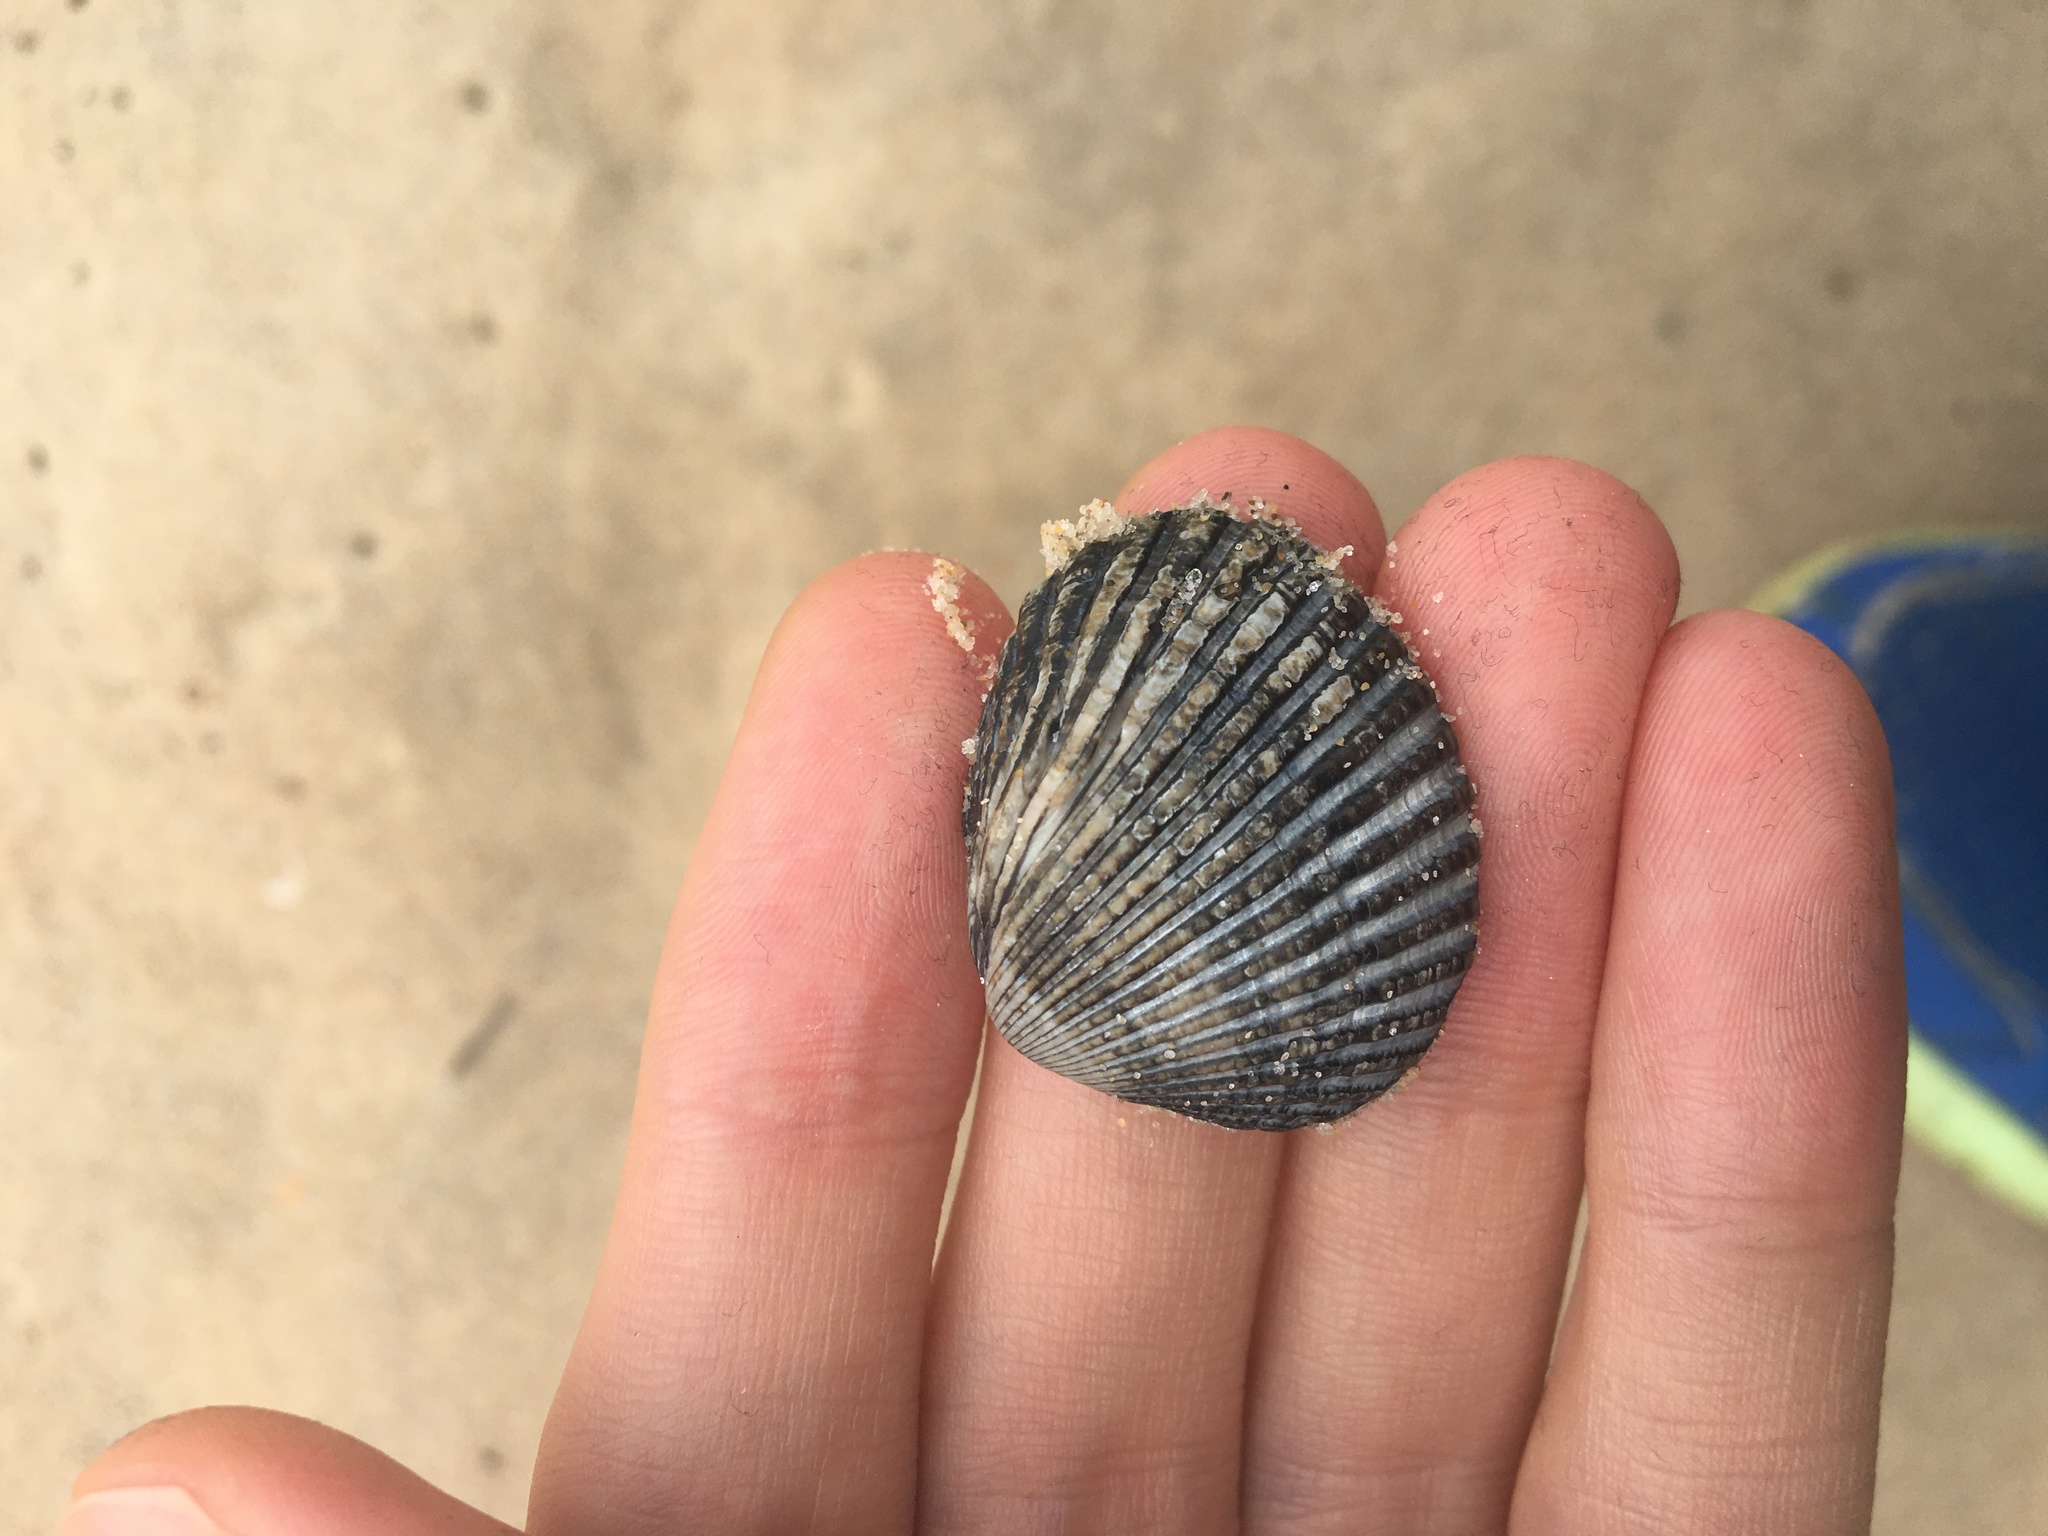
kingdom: Animalia
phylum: Mollusca
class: Bivalvia
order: Arcida
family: Arcidae
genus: Anadara
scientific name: Anadara trapezia
